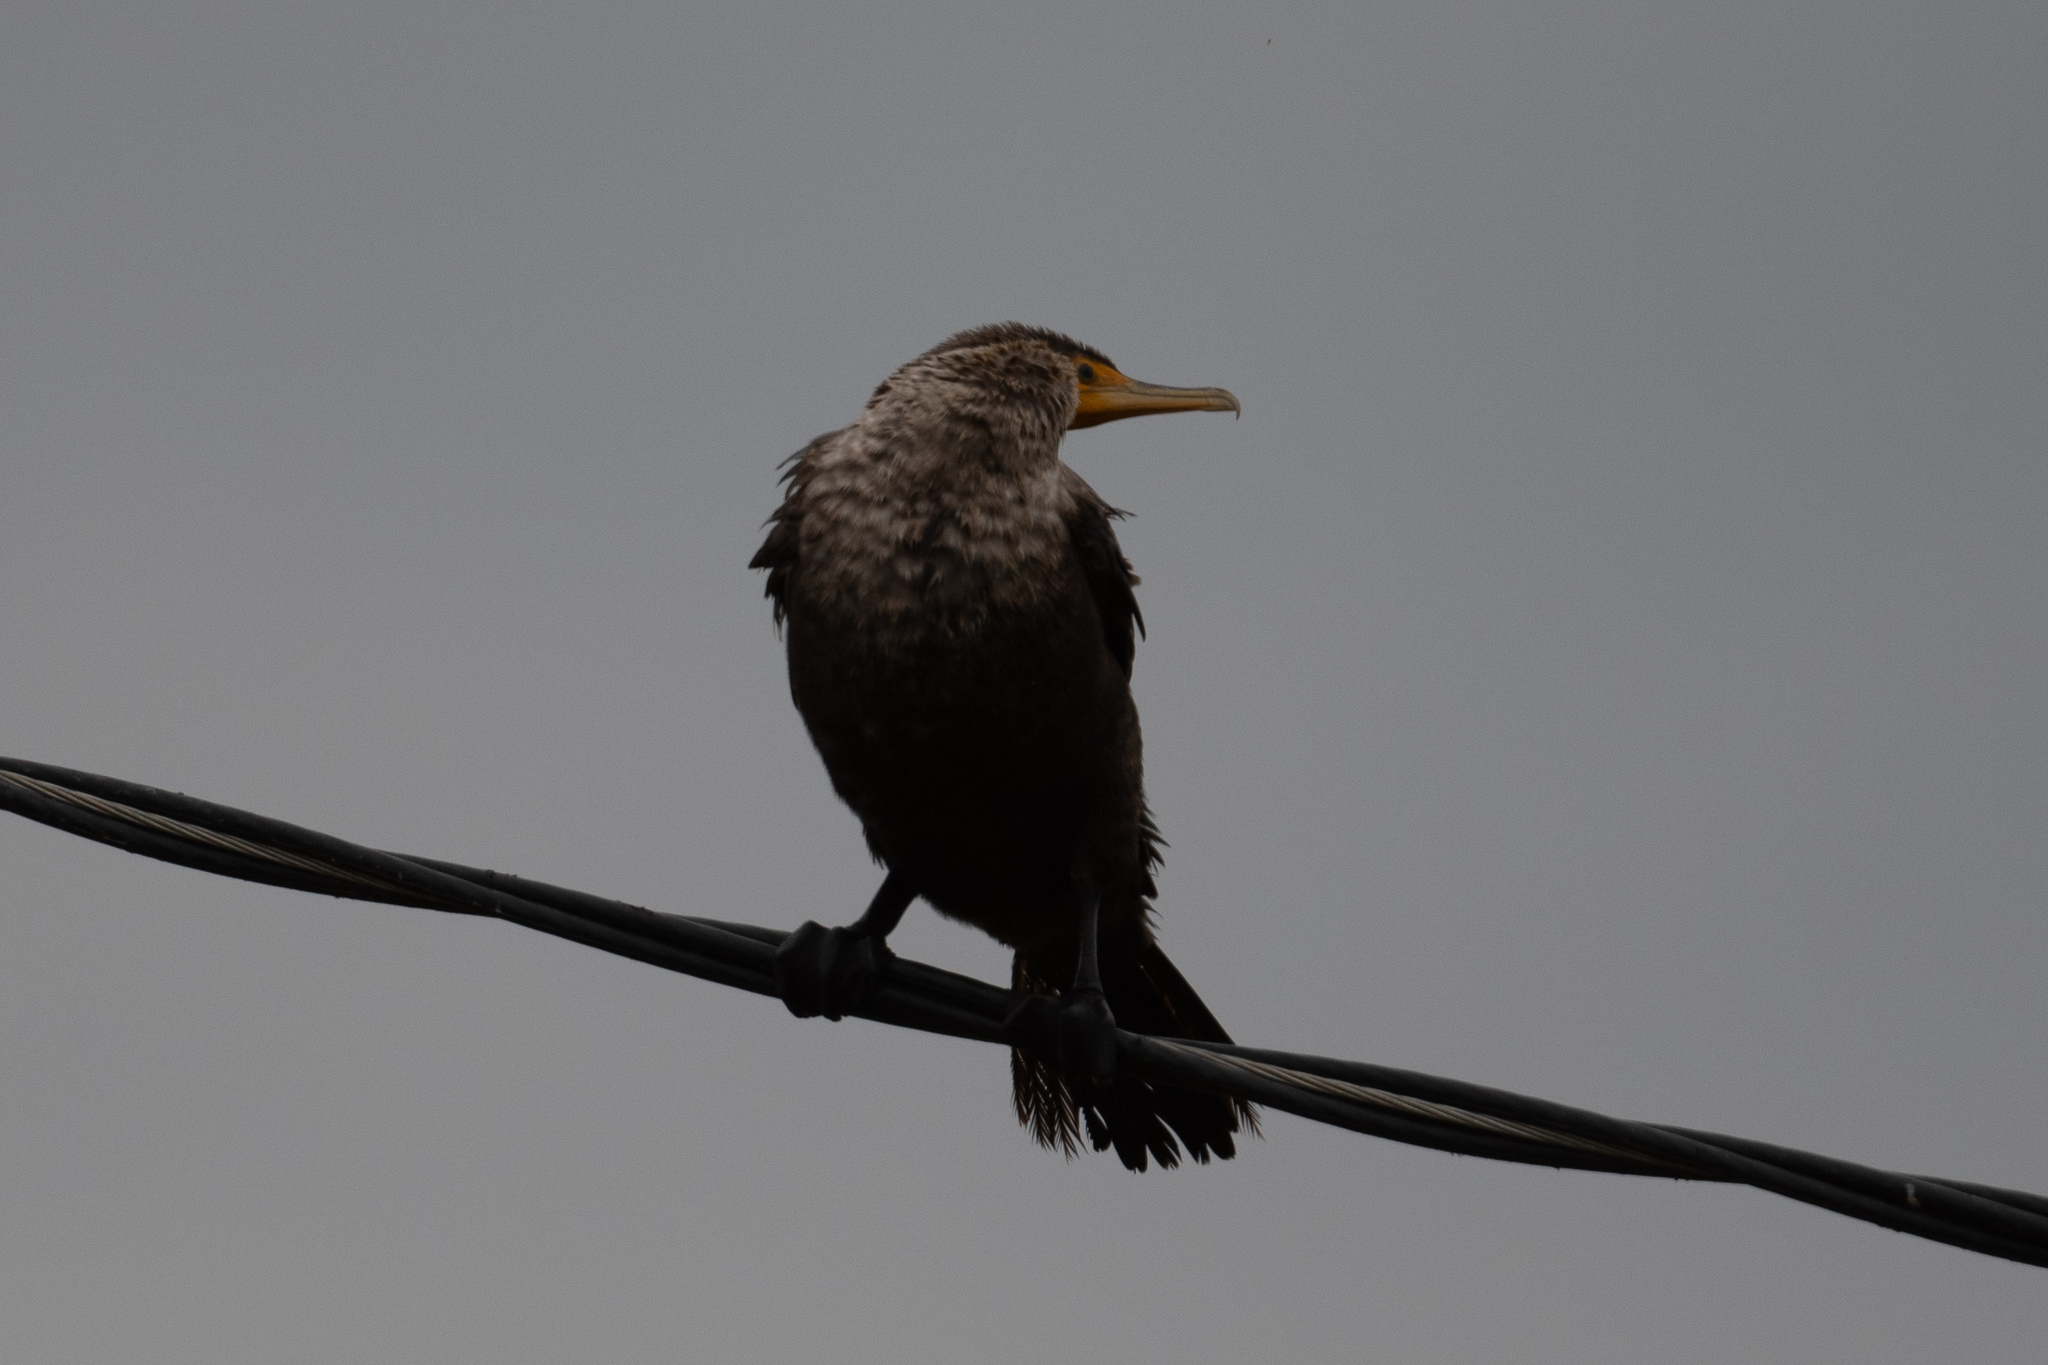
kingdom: Animalia
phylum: Chordata
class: Aves
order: Suliformes
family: Phalacrocoracidae
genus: Phalacrocorax
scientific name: Phalacrocorax auritus
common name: Double-crested cormorant
